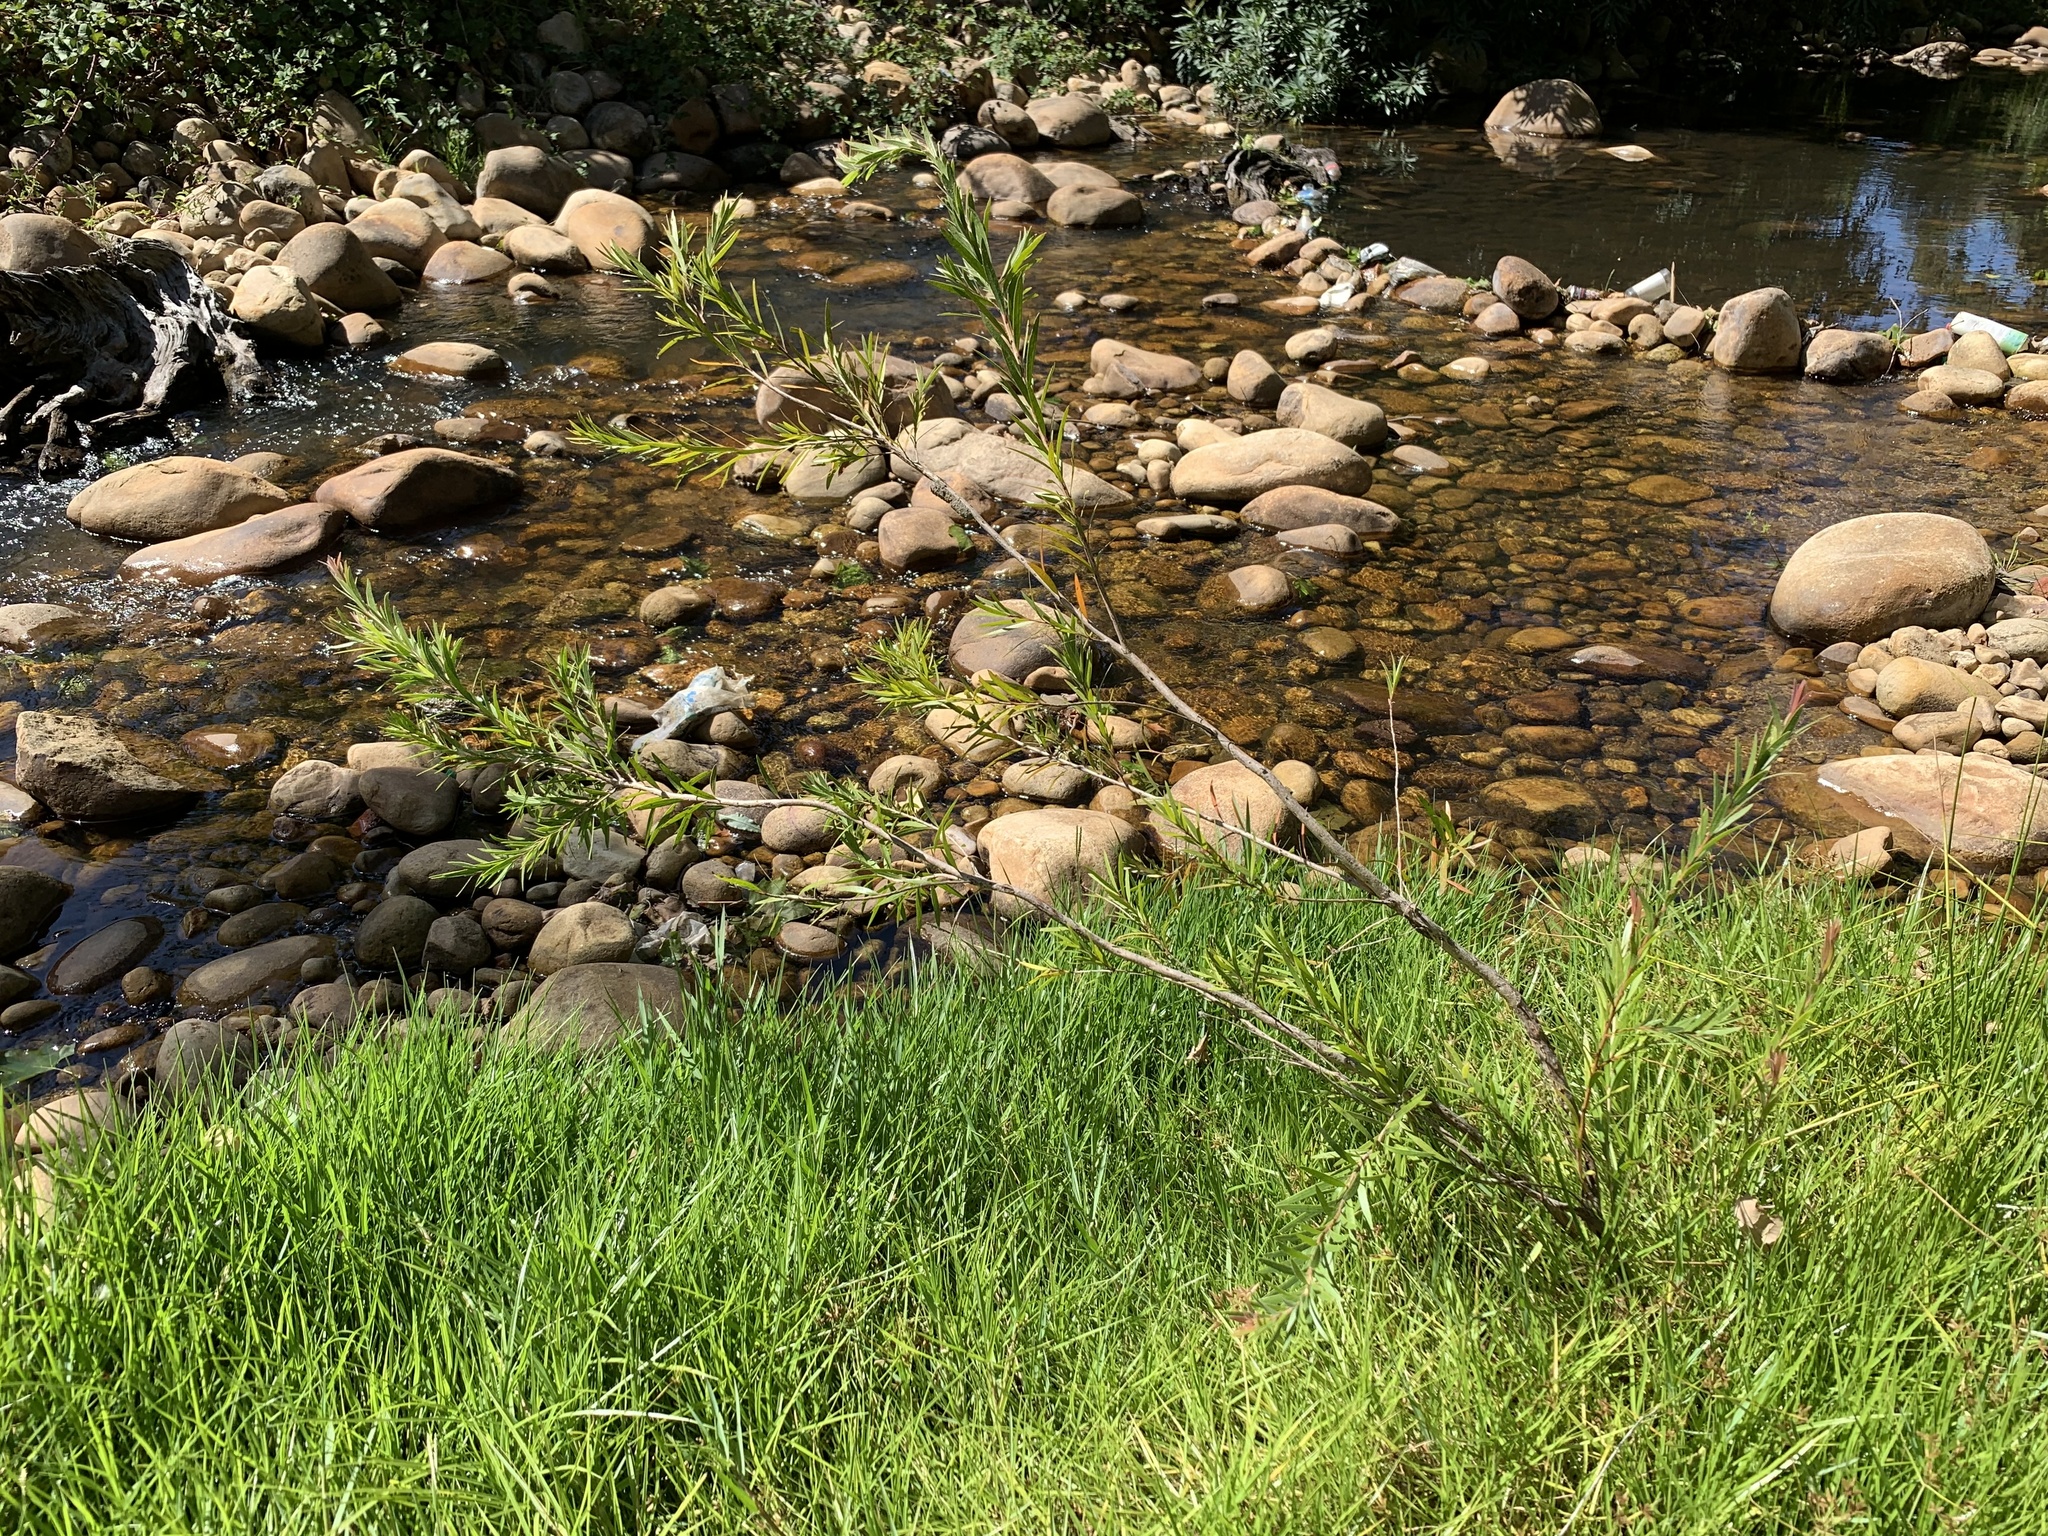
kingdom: Plantae
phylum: Tracheophyta
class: Magnoliopsida
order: Myrtales
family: Myrtaceae
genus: Callistemon
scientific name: Callistemon viminalis
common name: Drooping bottlebrush
